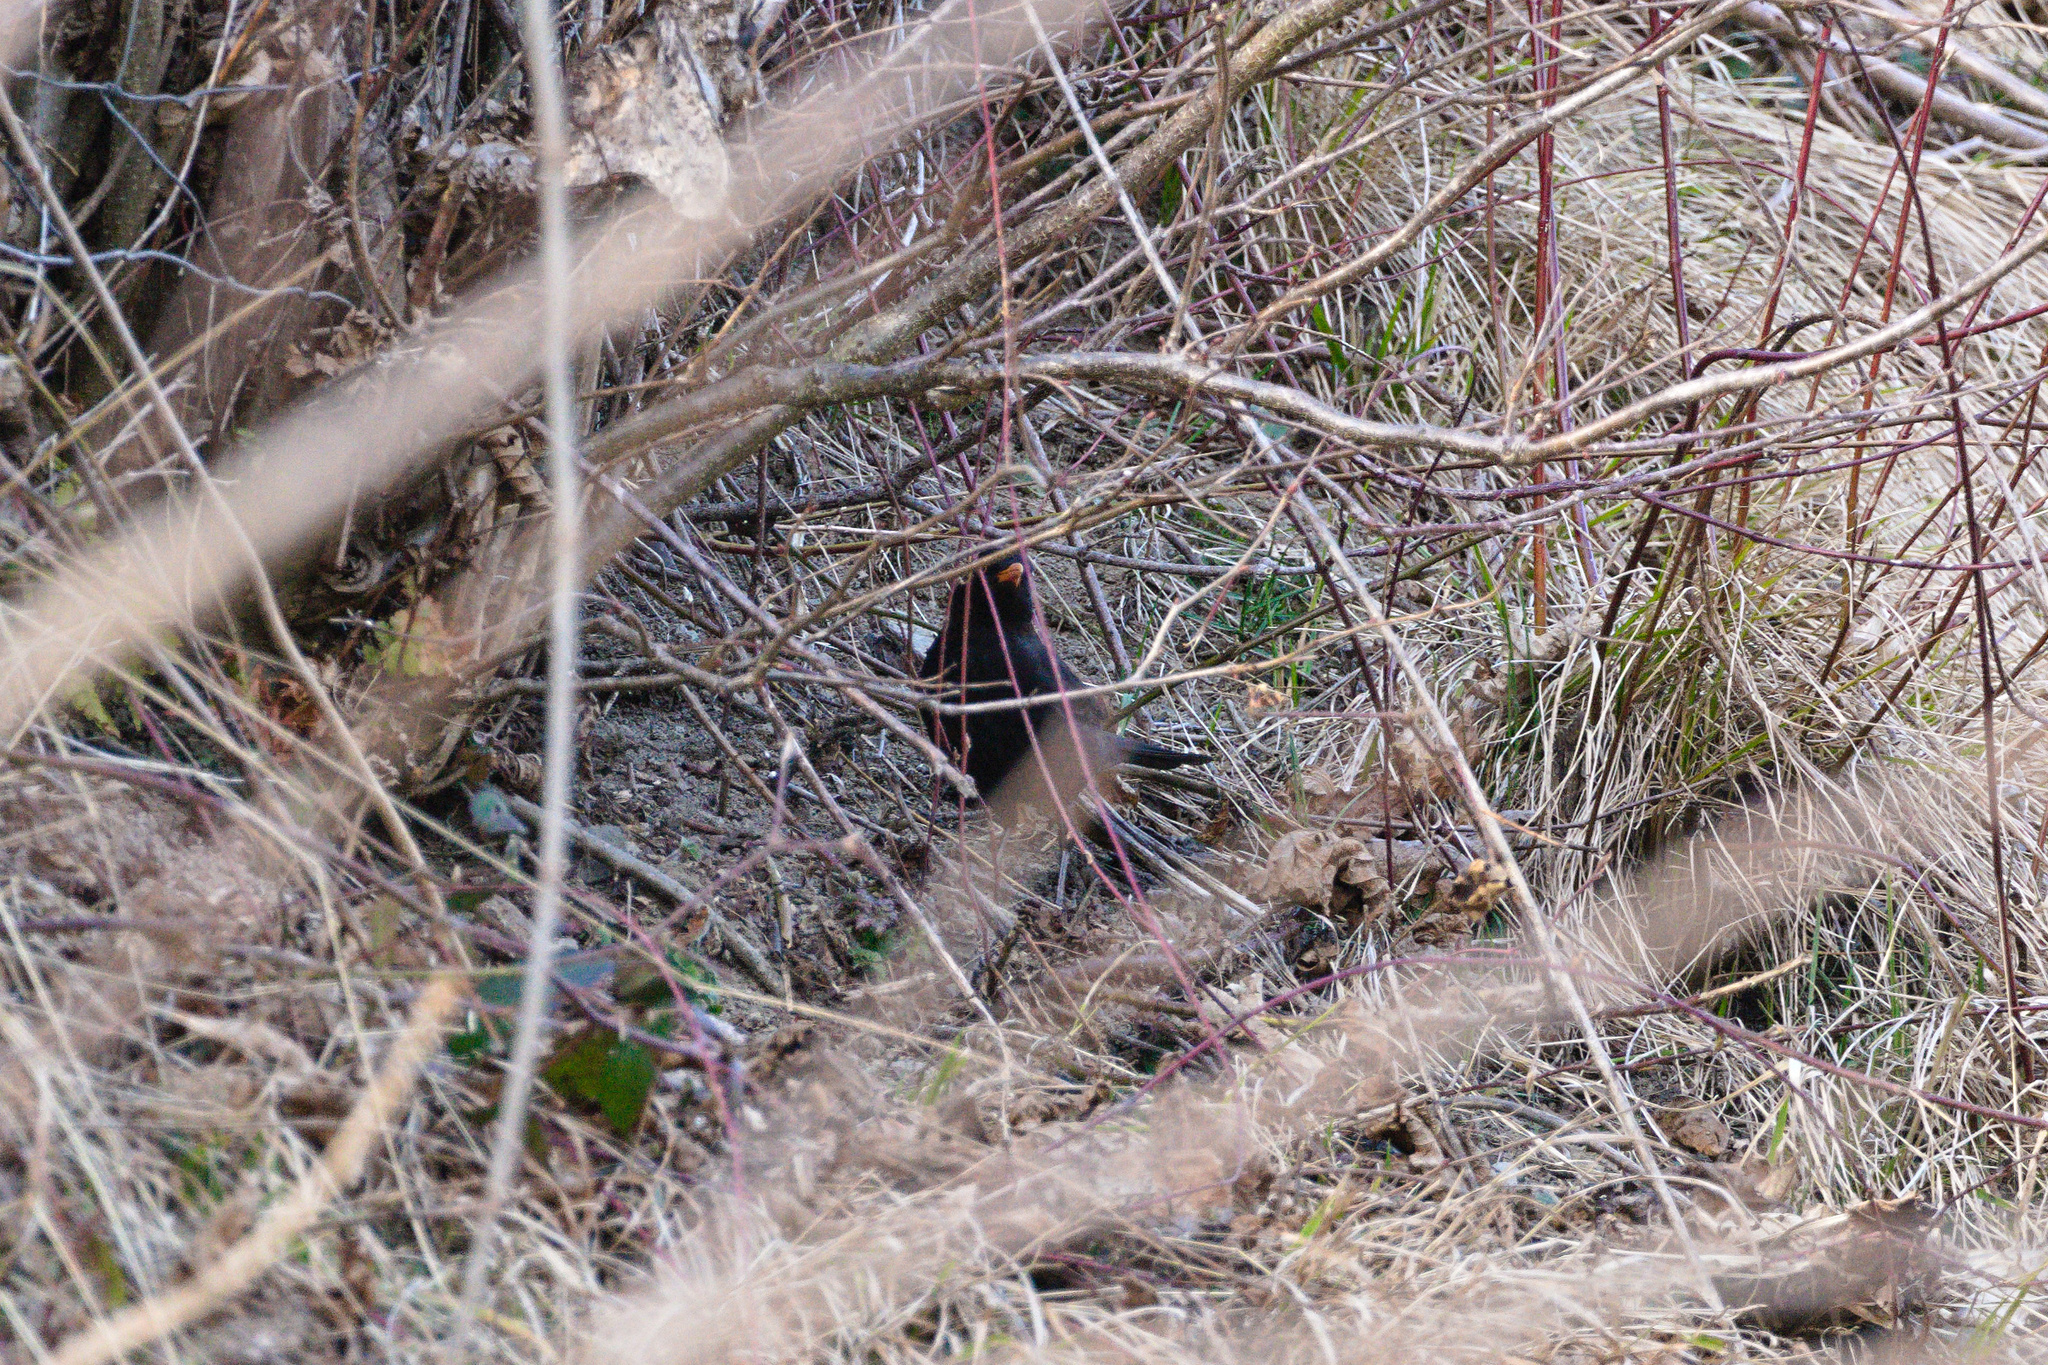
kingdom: Animalia
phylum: Chordata
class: Aves
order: Passeriformes
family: Turdidae
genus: Turdus
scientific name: Turdus merula
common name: Common blackbird
